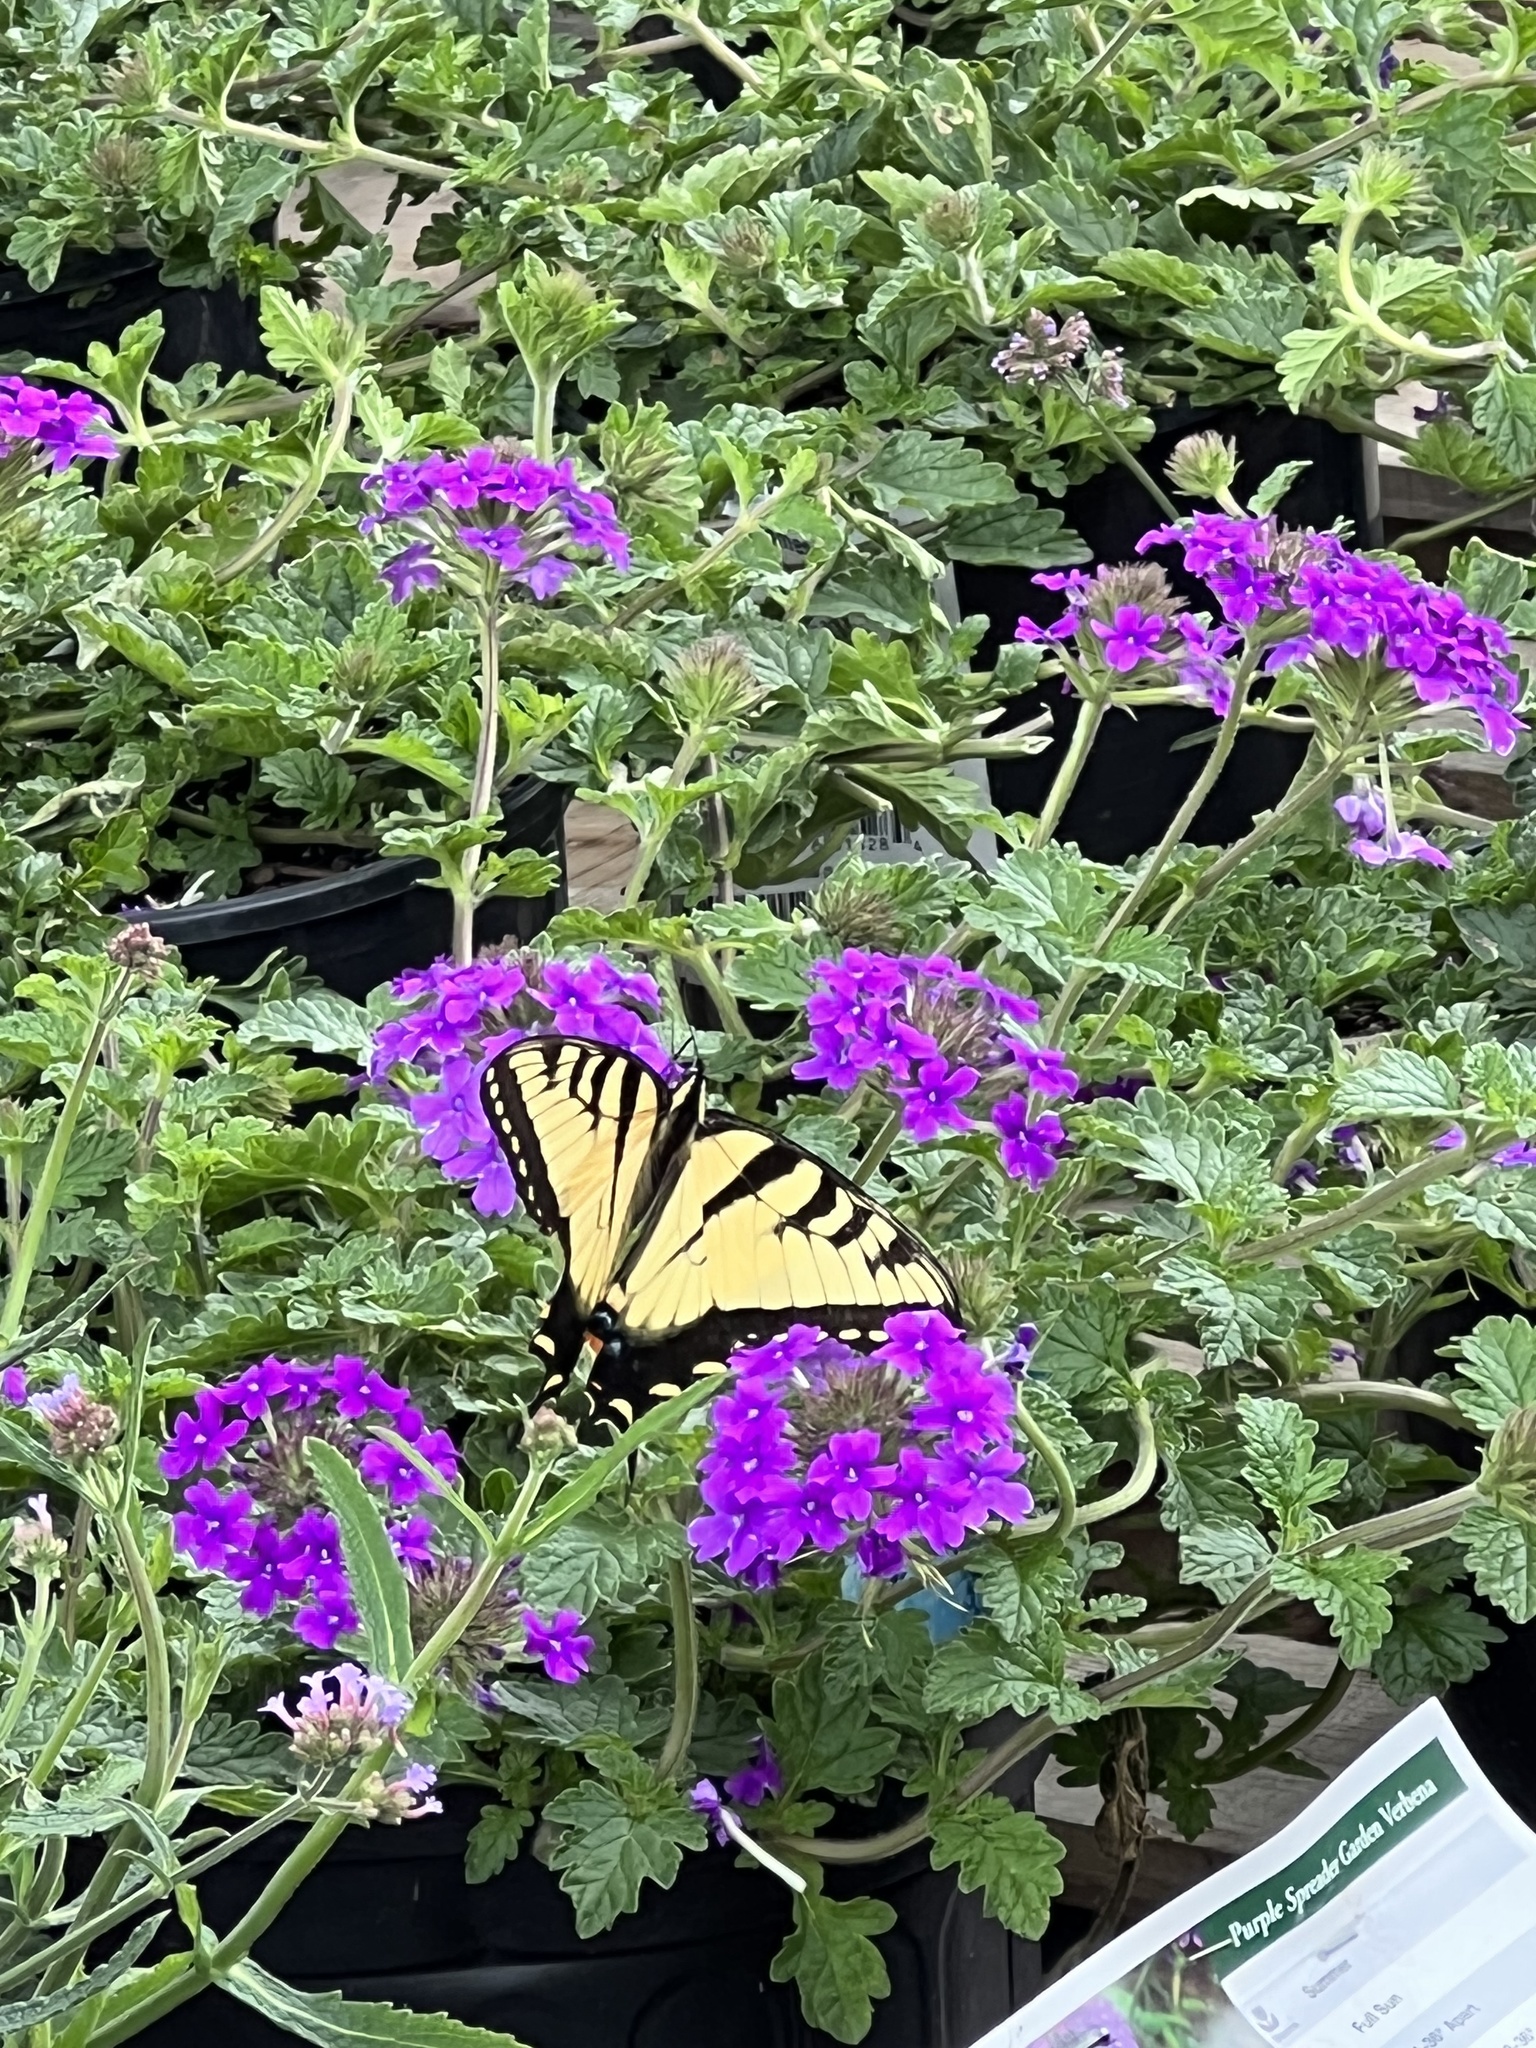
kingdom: Animalia
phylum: Arthropoda
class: Insecta
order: Lepidoptera
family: Papilionidae
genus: Papilio
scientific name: Papilio glaucus
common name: Tiger swallowtail
